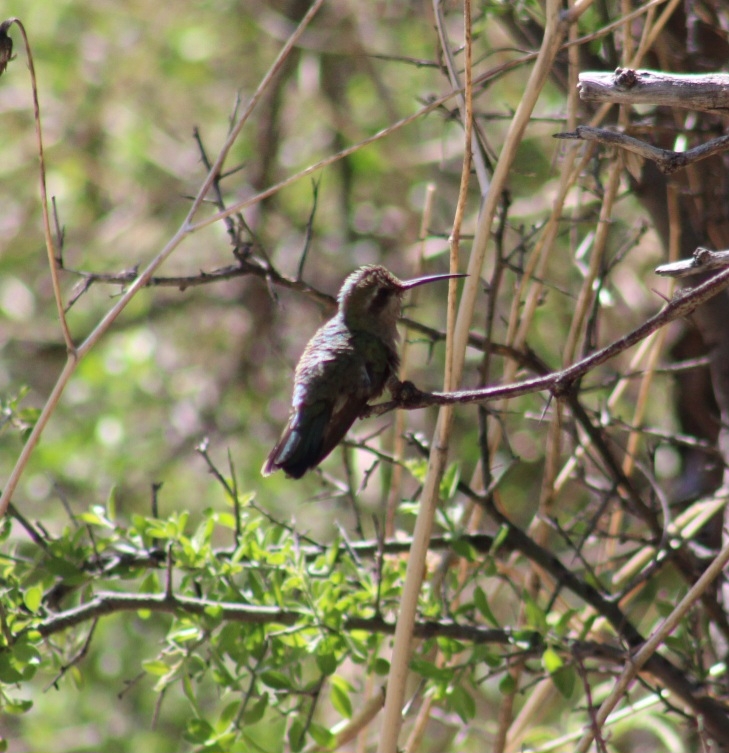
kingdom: Animalia
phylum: Chordata
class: Aves
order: Apodiformes
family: Trochilidae
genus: Cynanthus
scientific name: Cynanthus latirostris
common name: Broad-billed hummingbird
